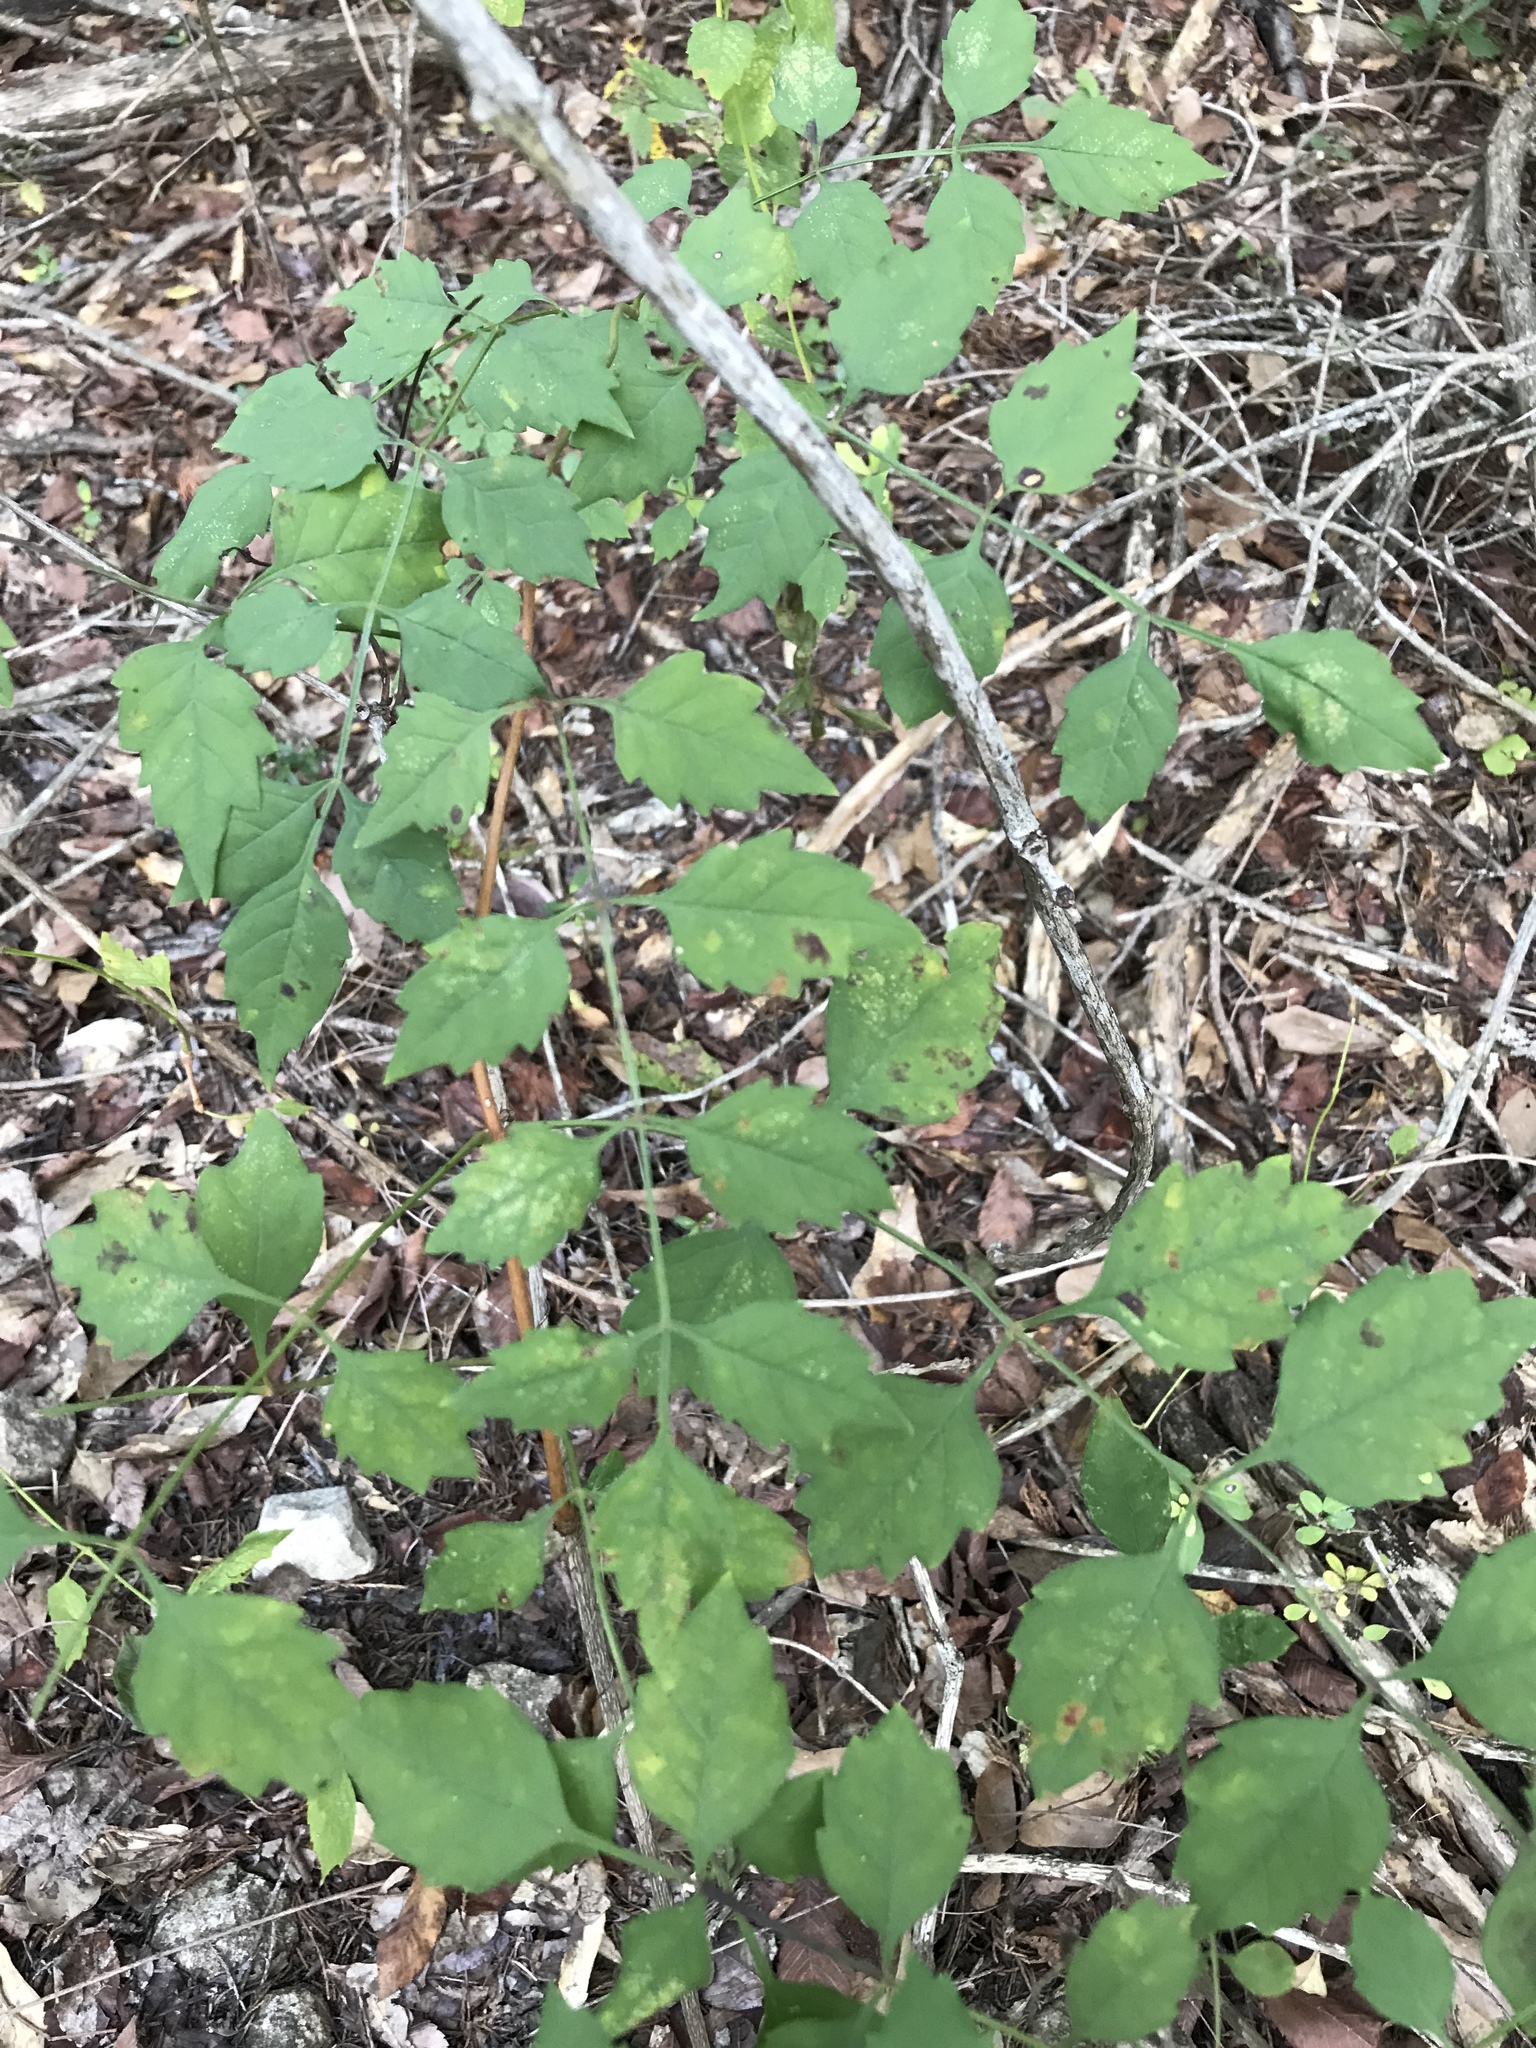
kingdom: Plantae
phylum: Tracheophyta
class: Magnoliopsida
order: Lamiales
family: Bignoniaceae
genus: Campsis
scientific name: Campsis radicans
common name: Trumpet-creeper
